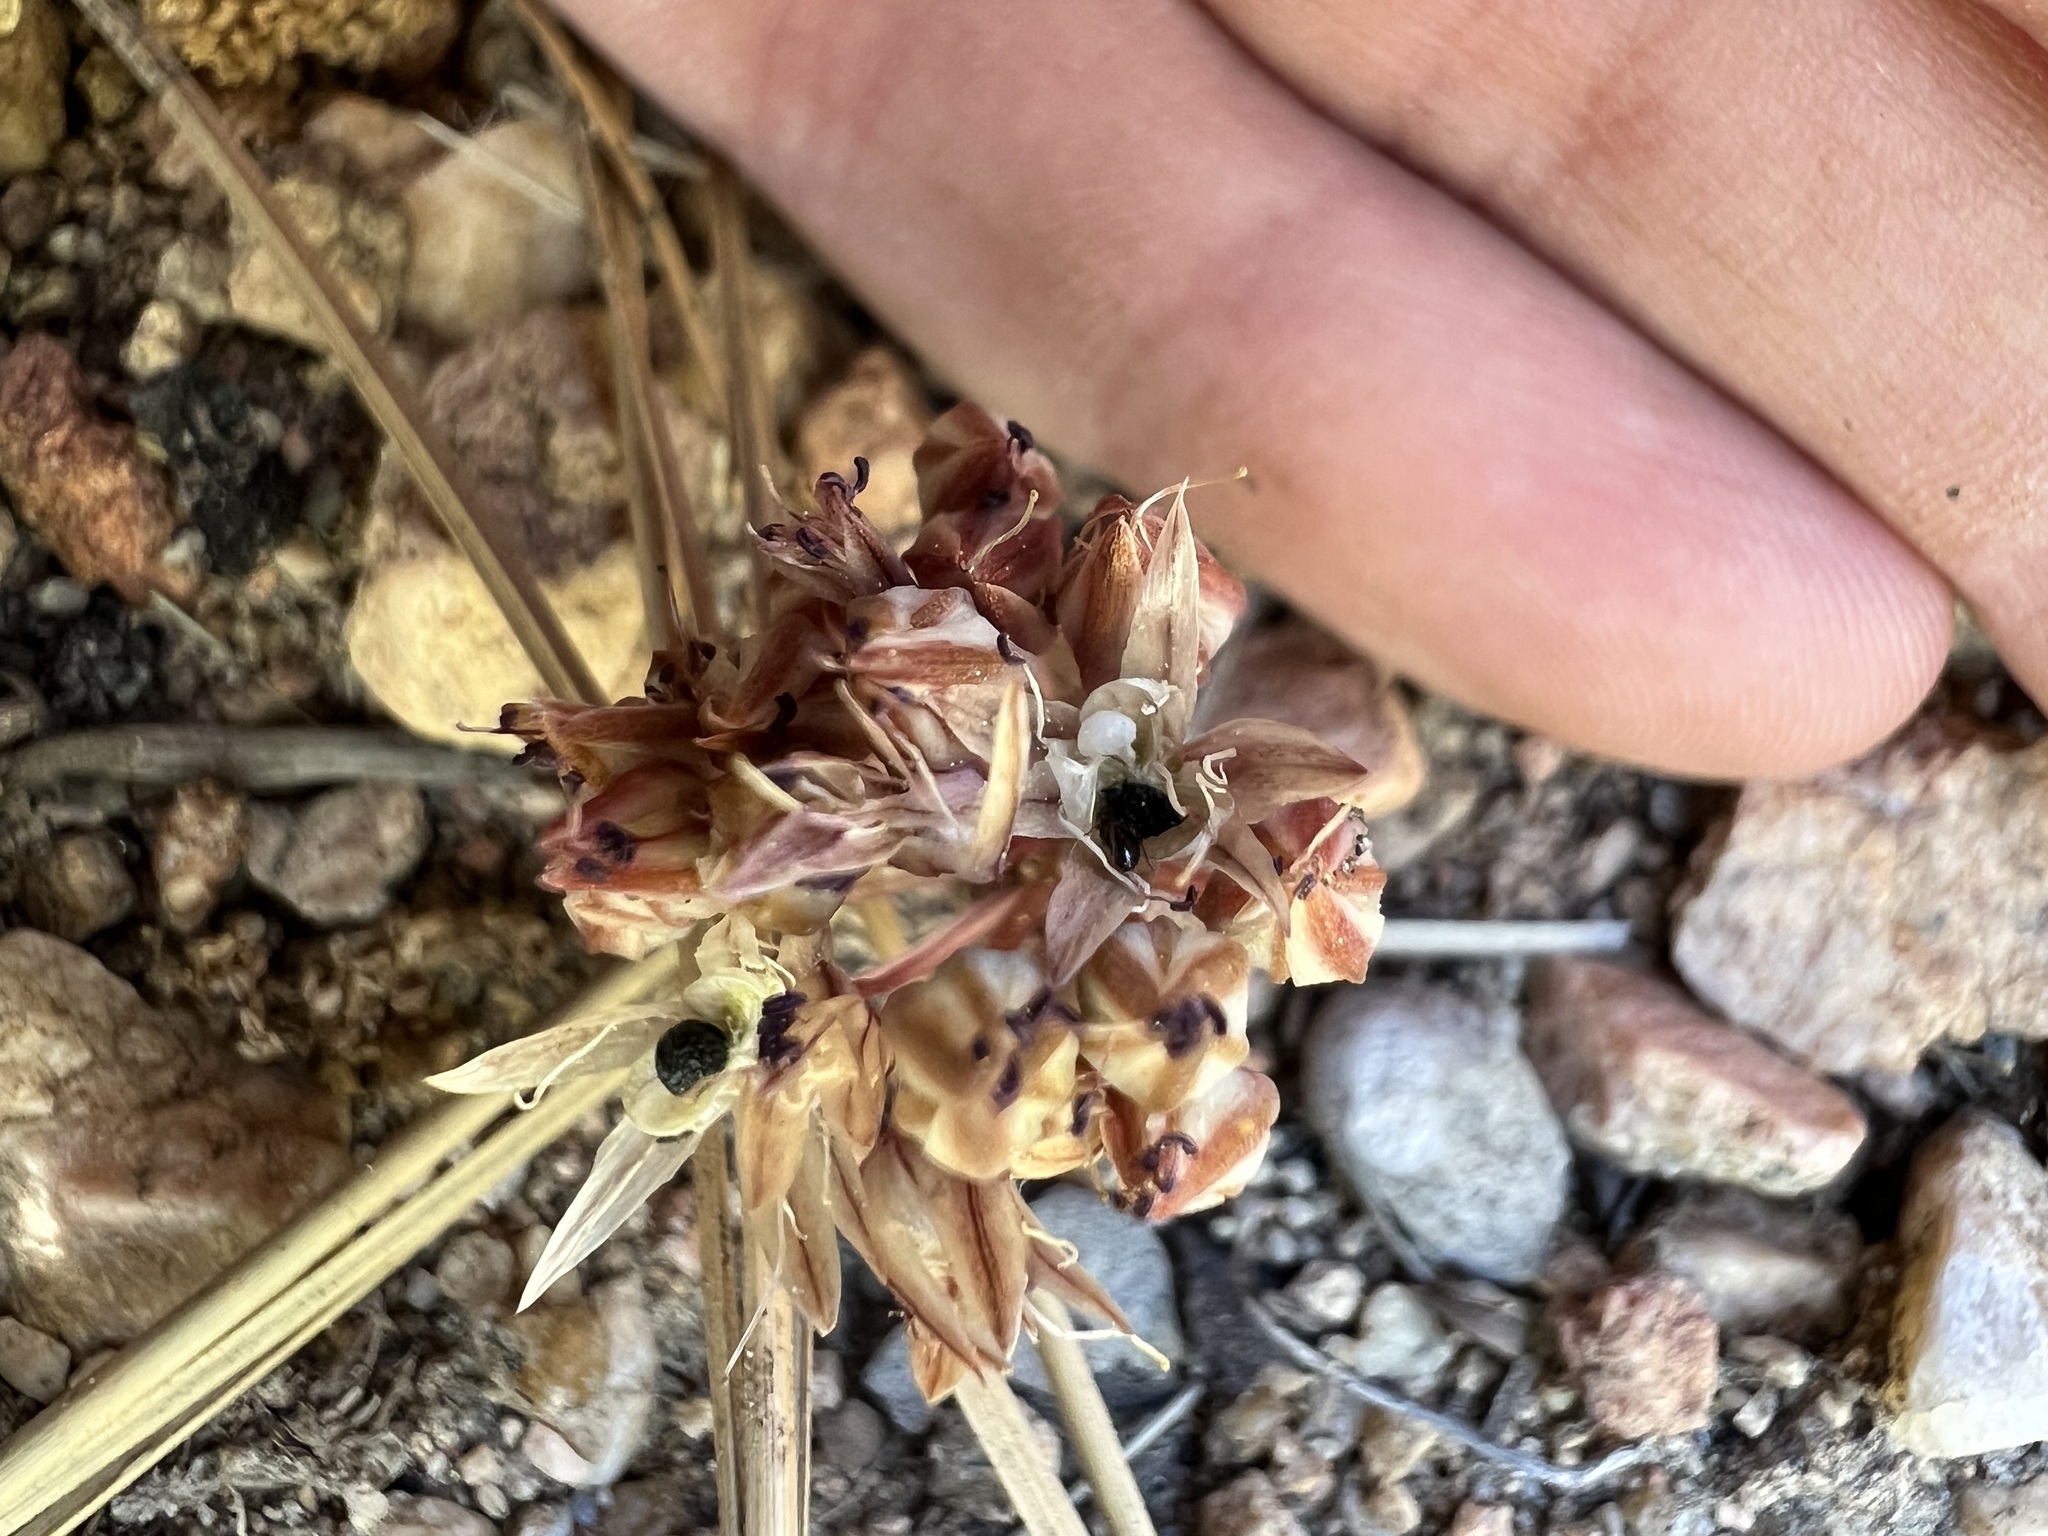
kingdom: Plantae
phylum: Tracheophyta
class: Liliopsida
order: Asparagales
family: Amaryllidaceae
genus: Allium
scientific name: Allium burlewii
